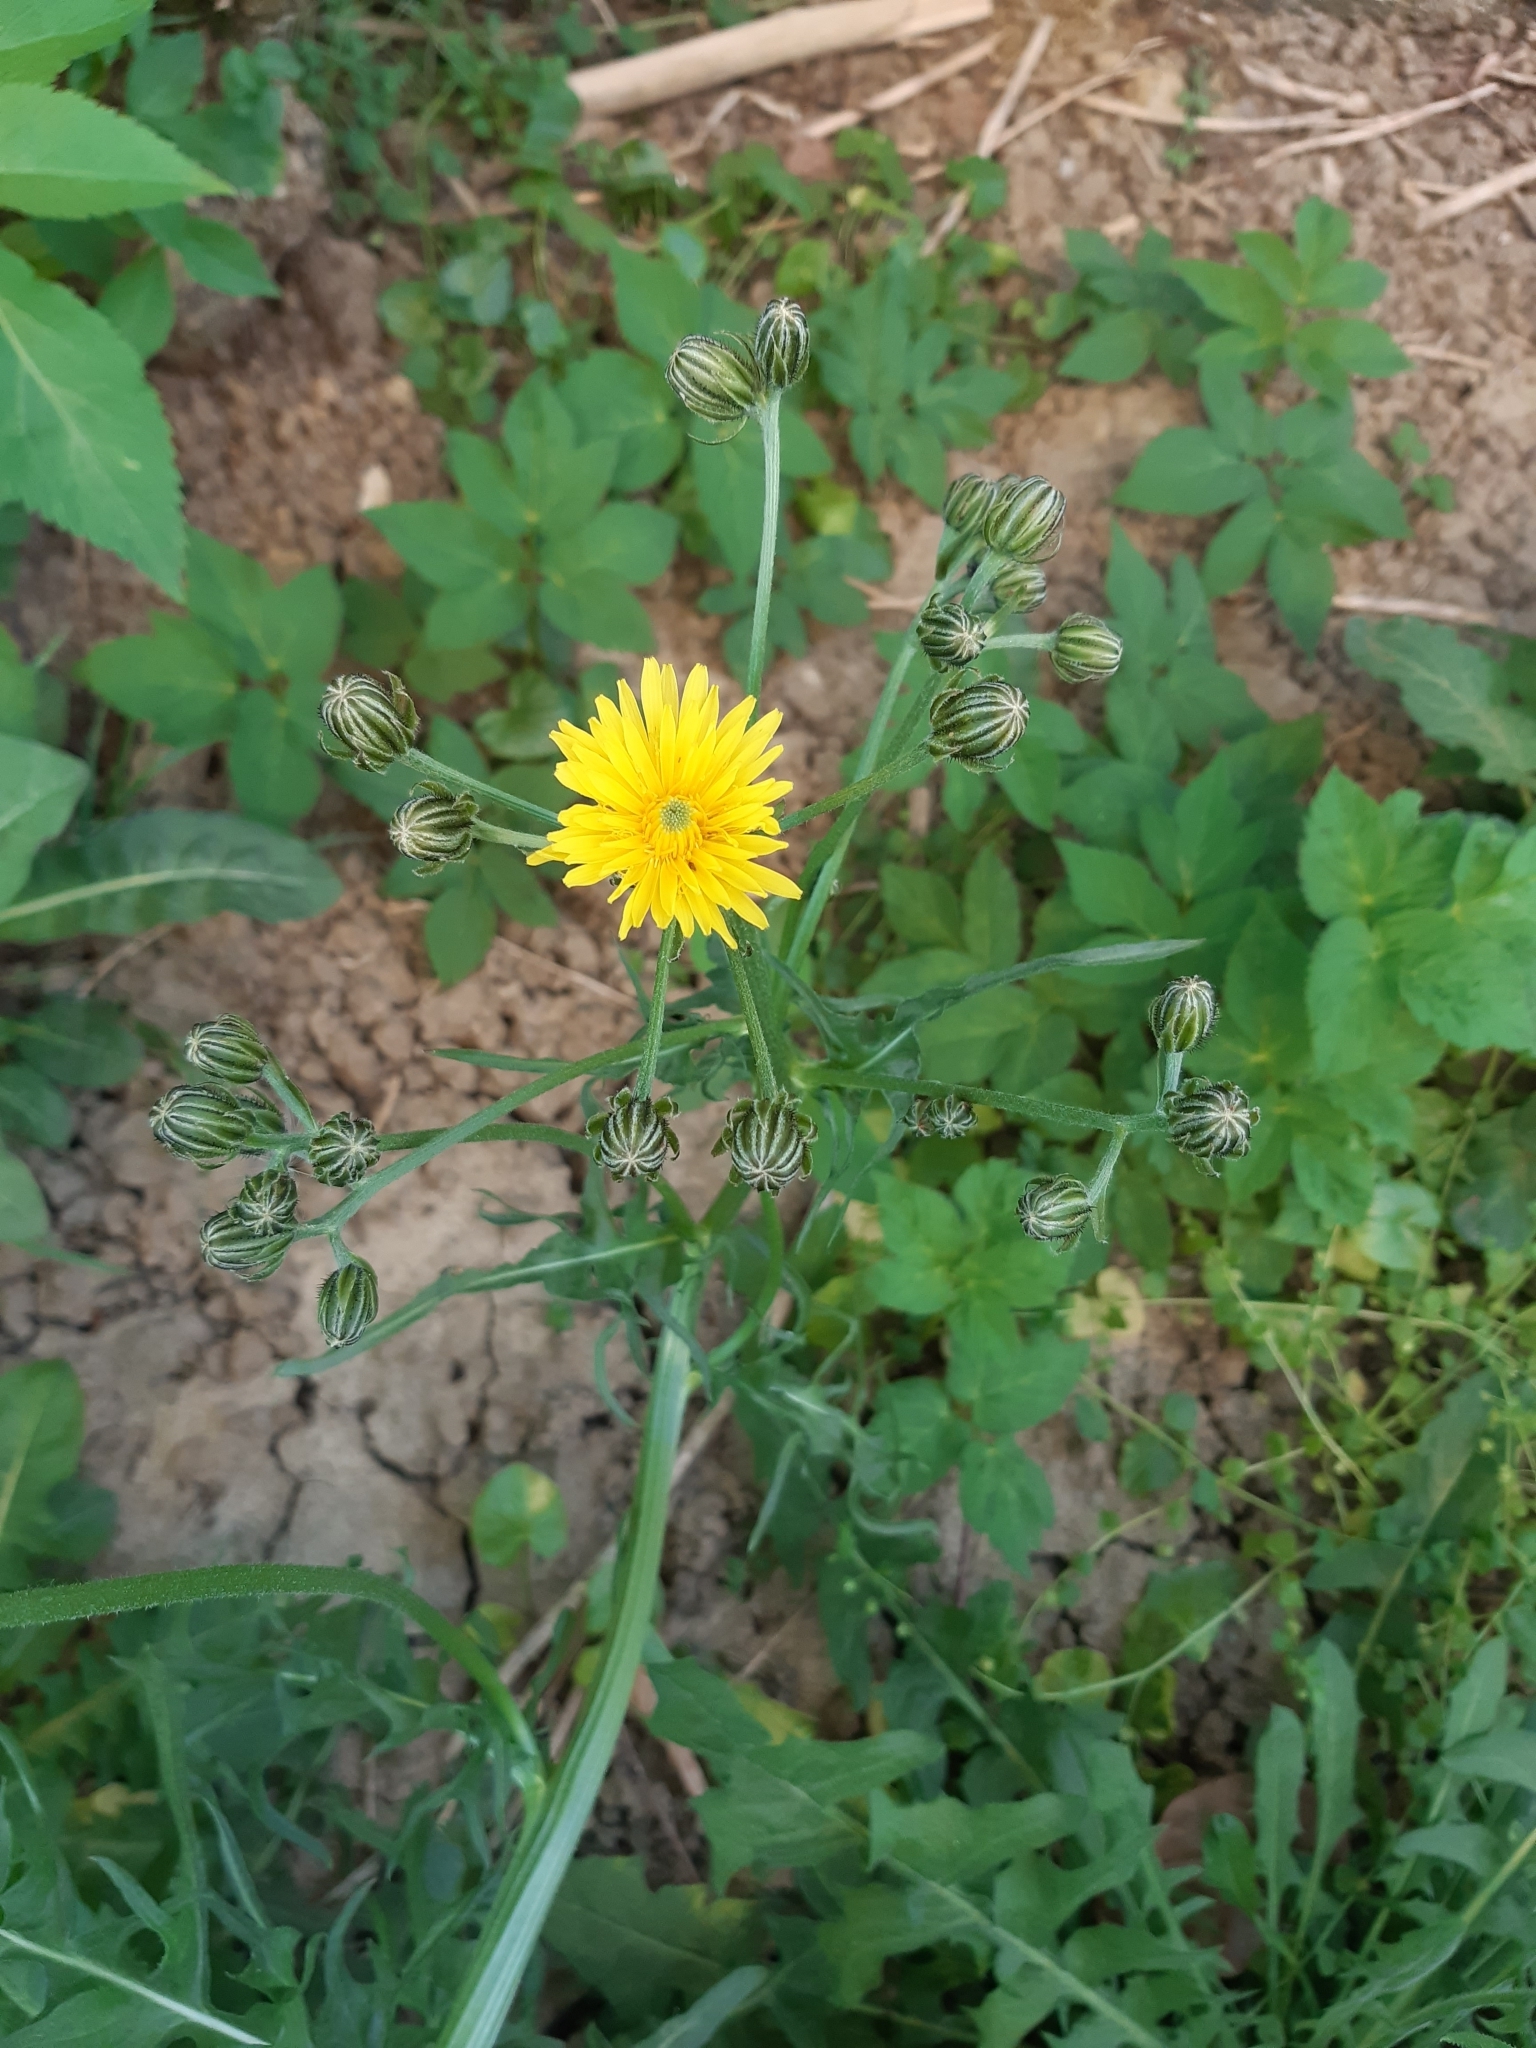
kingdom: Plantae
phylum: Tracheophyta
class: Magnoliopsida
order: Asterales
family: Asteraceae
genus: Crepis
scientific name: Crepis biennis
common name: Rough hawk's-beard
